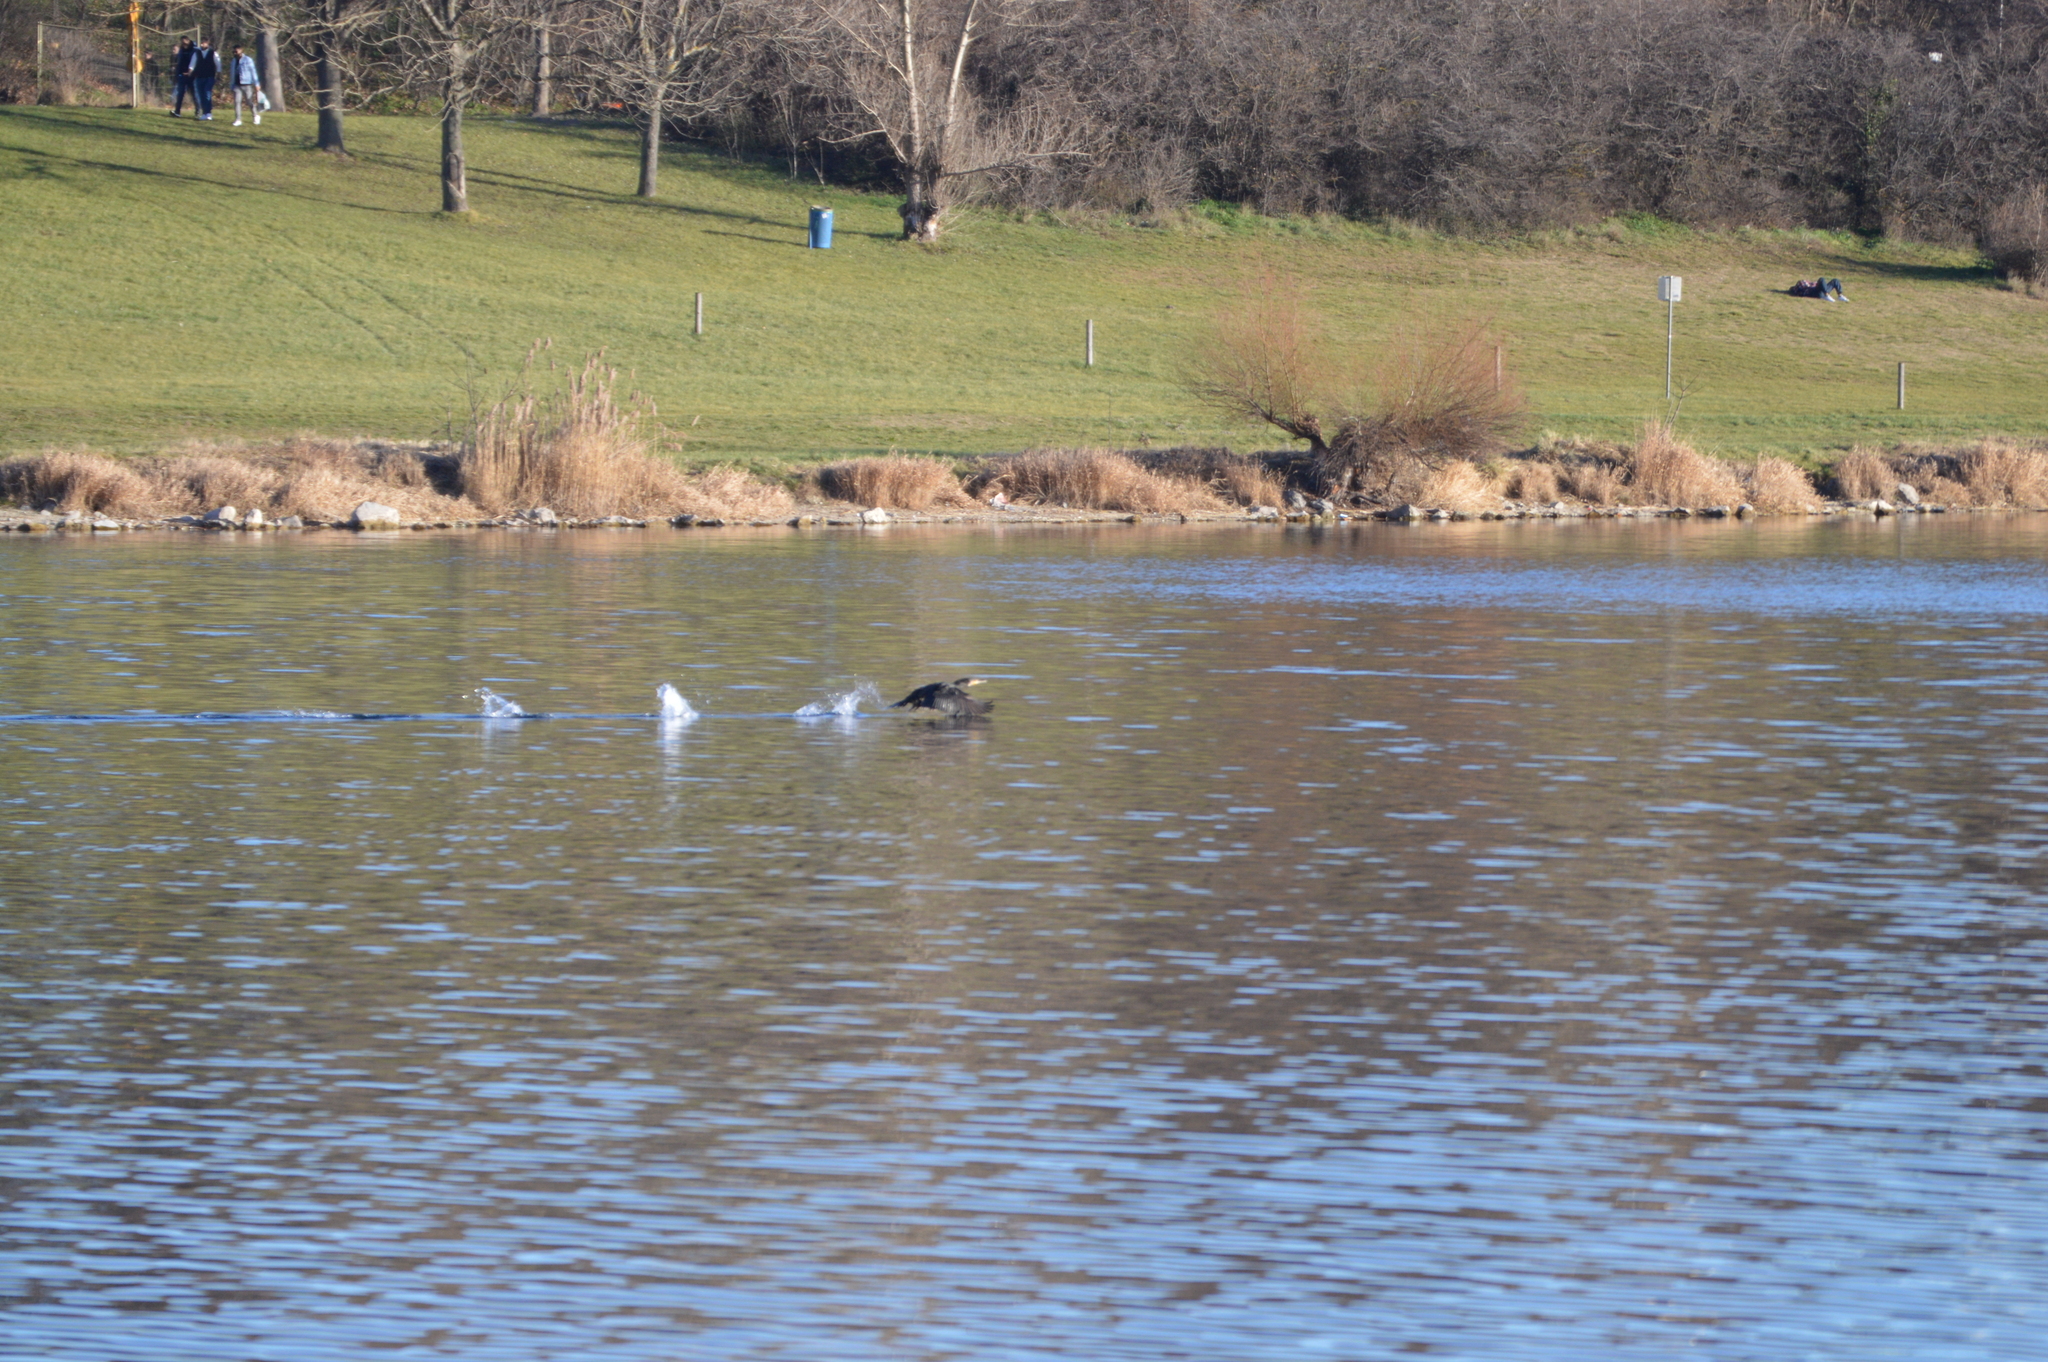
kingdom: Animalia
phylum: Chordata
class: Aves
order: Suliformes
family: Phalacrocoracidae
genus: Phalacrocorax
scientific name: Phalacrocorax carbo
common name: Great cormorant
